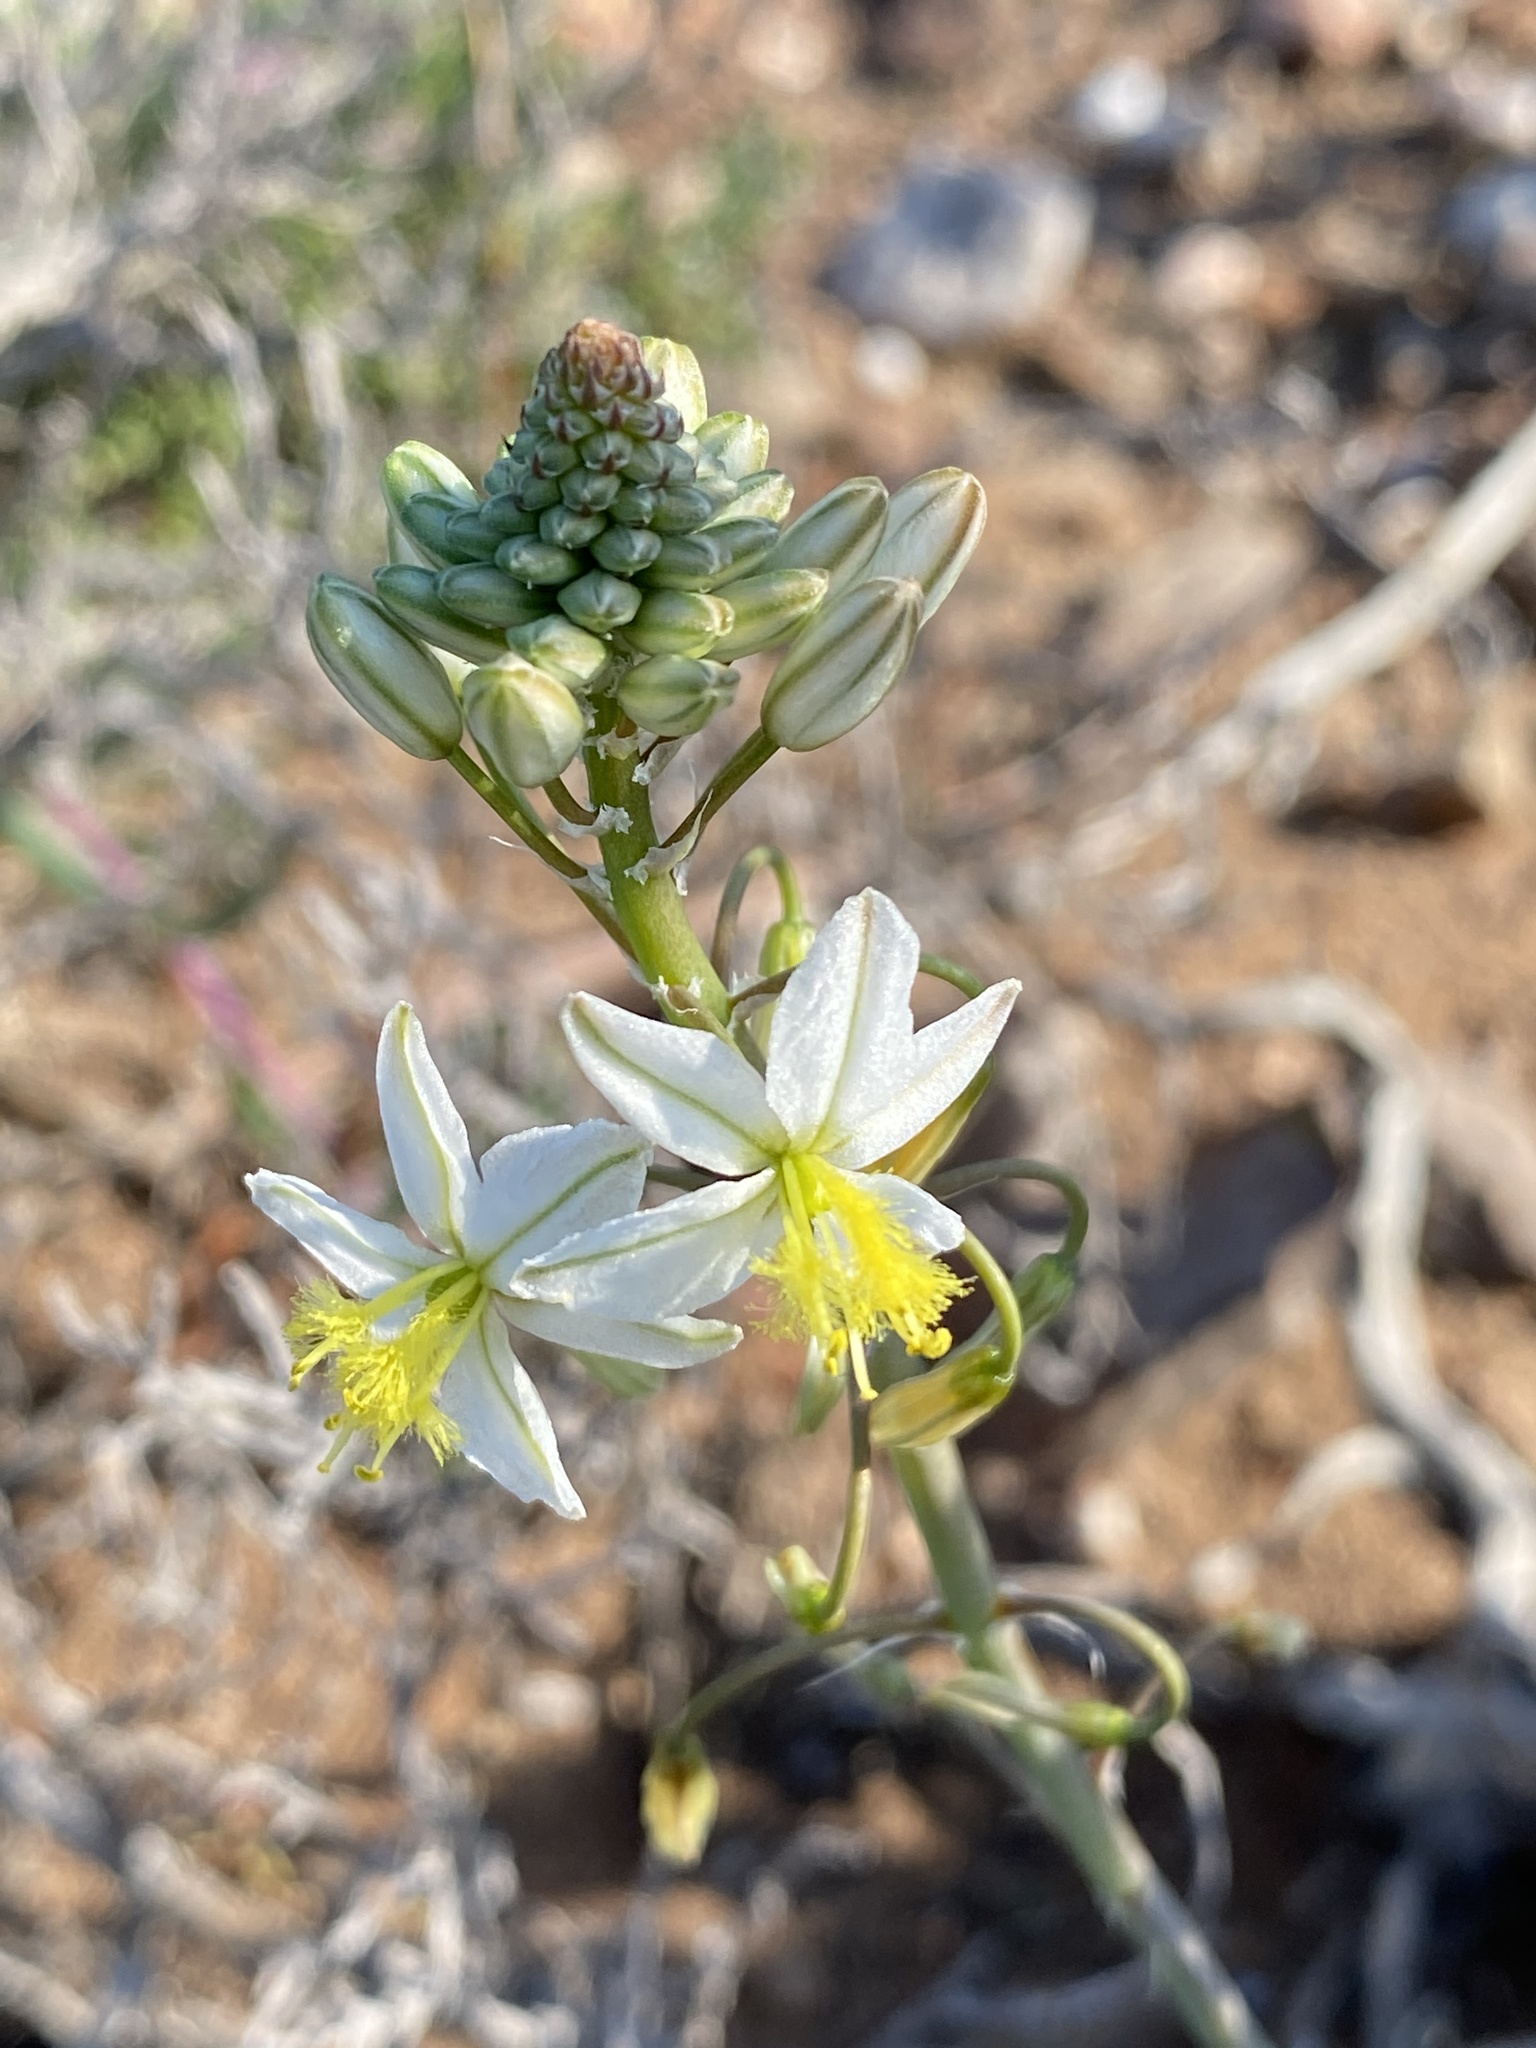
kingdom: Plantae
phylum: Tracheophyta
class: Liliopsida
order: Asparagales
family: Asphodelaceae
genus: Bulbine
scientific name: Bulbine triebneri
